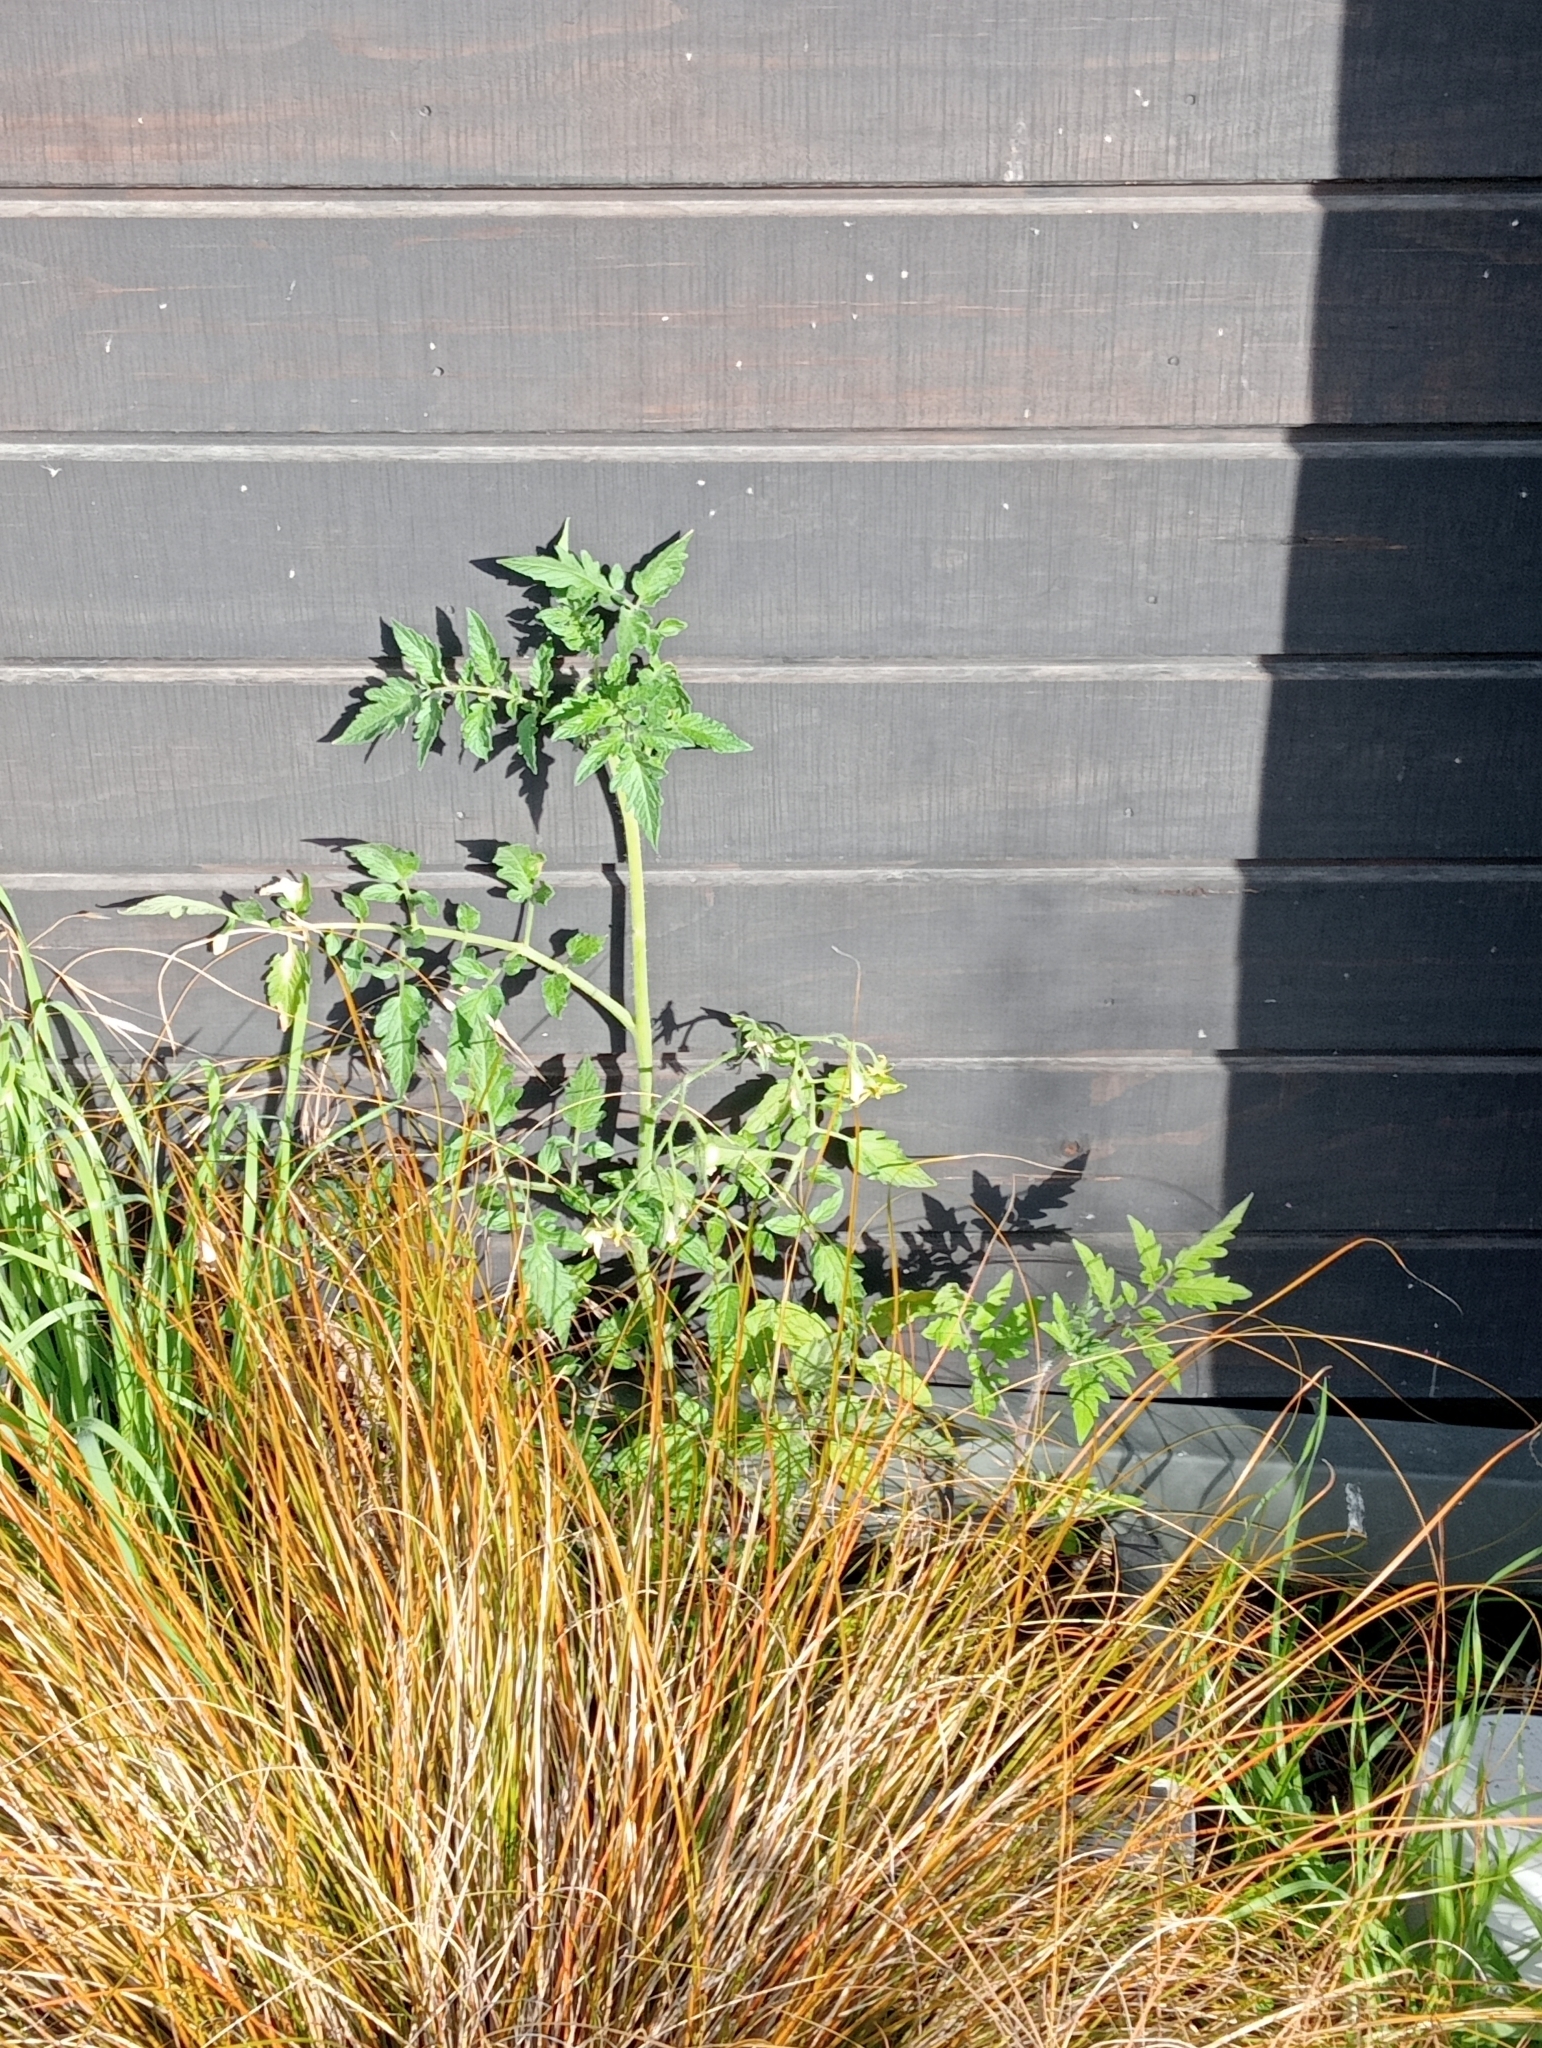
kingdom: Plantae
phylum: Tracheophyta
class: Magnoliopsida
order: Solanales
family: Solanaceae
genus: Solanum
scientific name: Solanum lycopersicum
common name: Garden tomato
